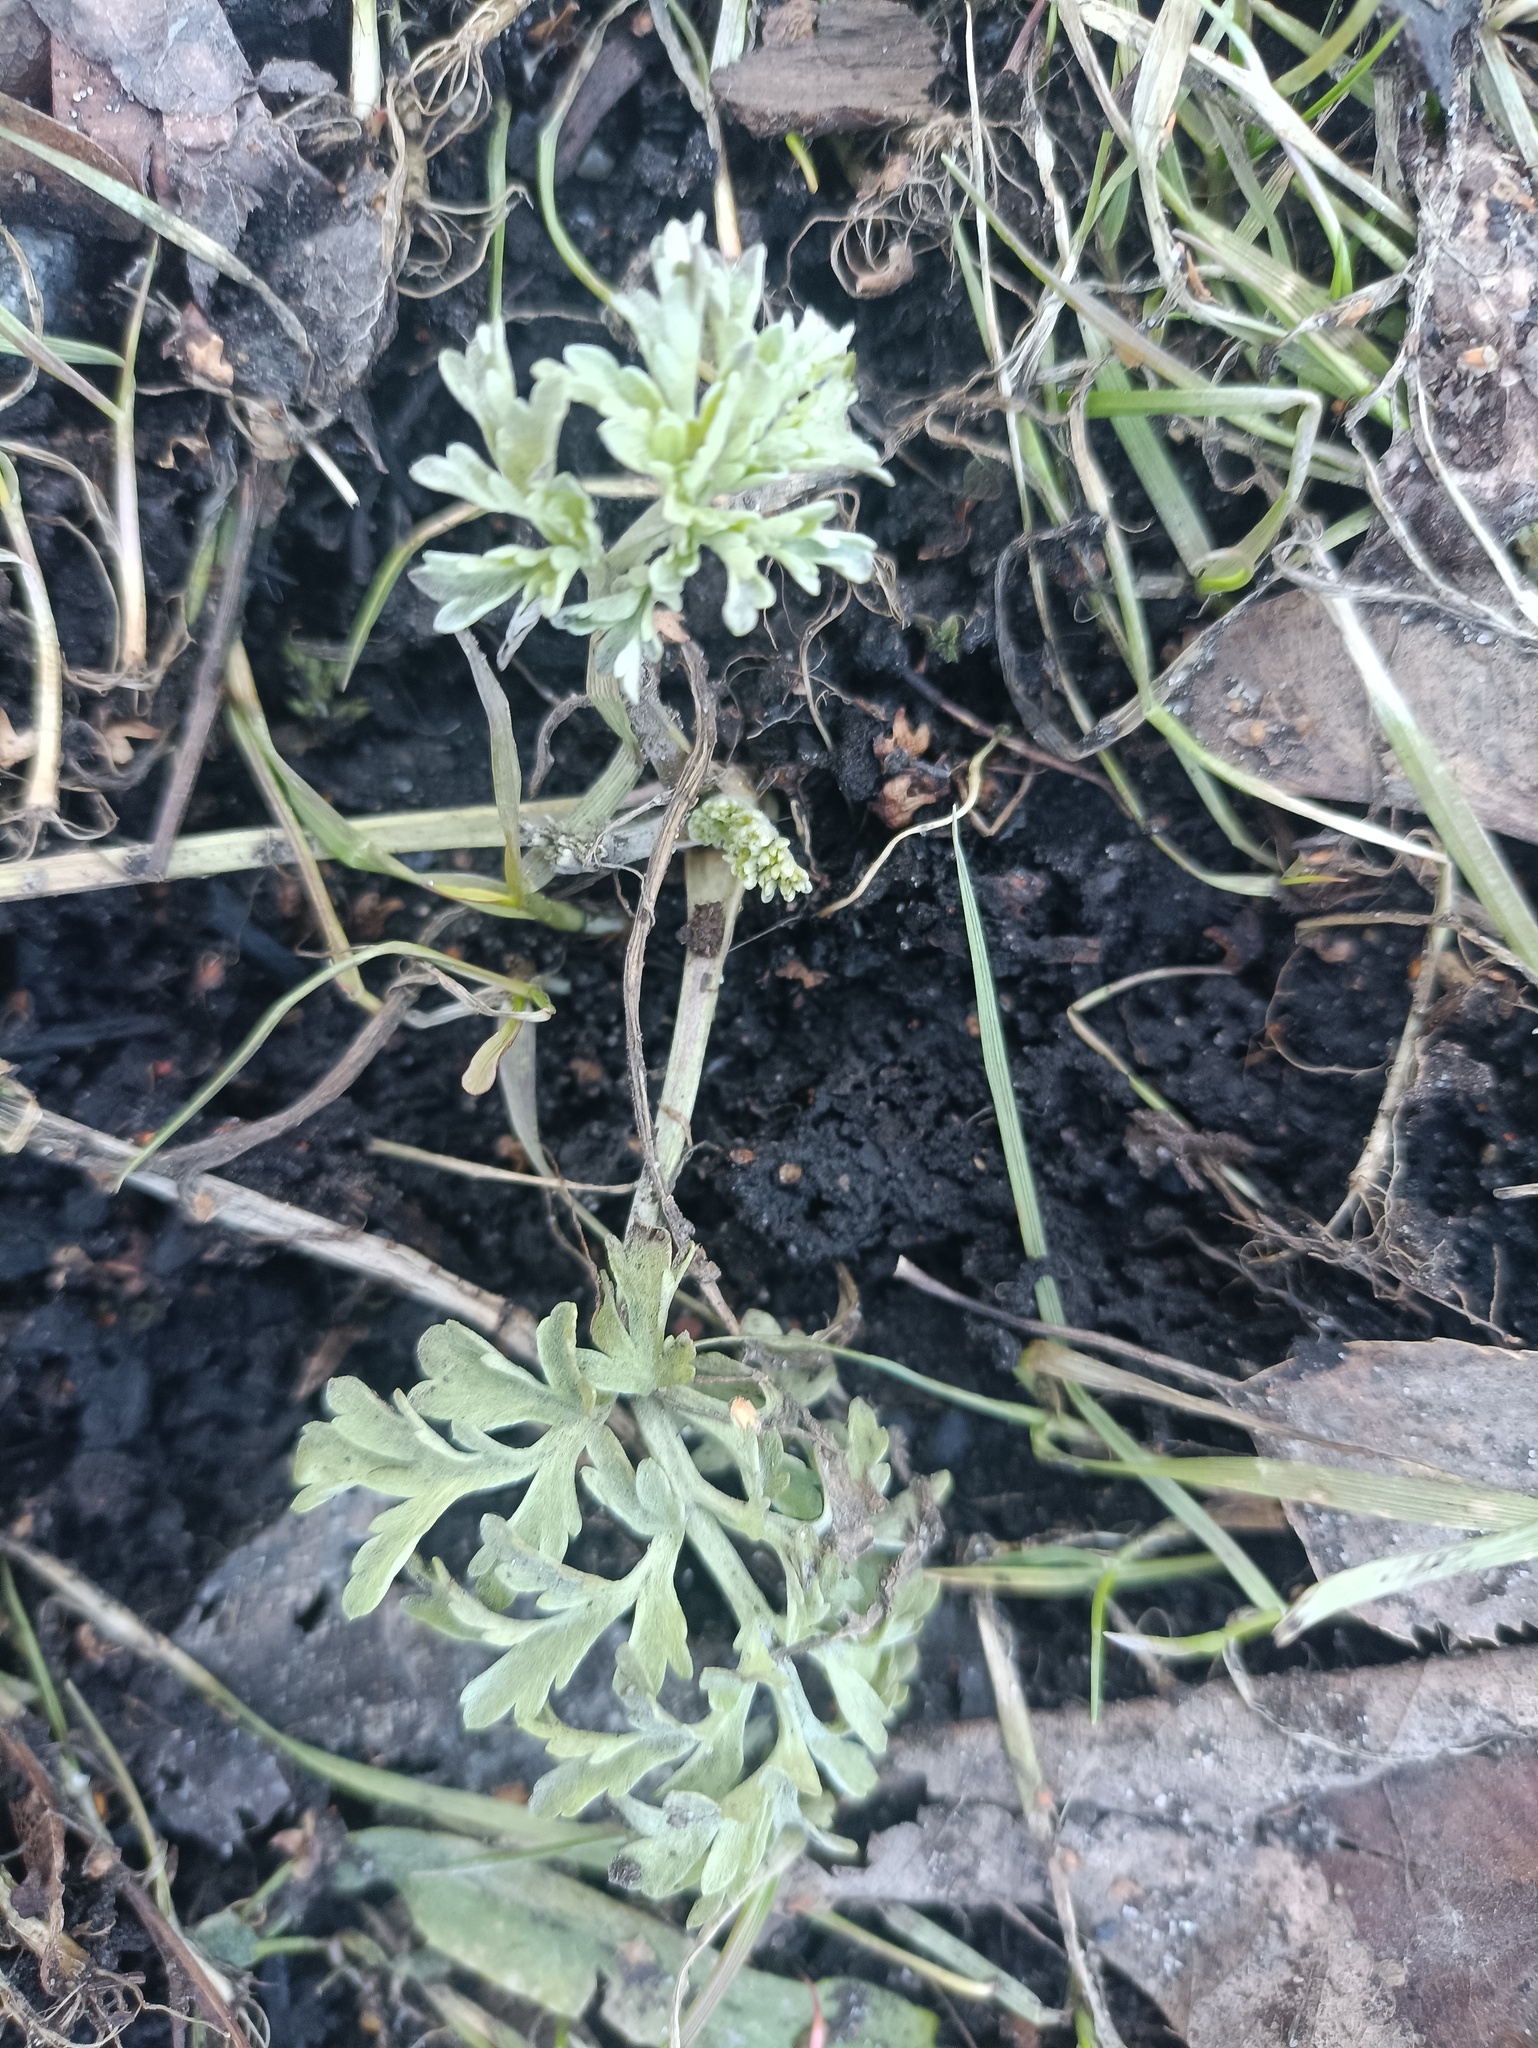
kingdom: Plantae
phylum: Tracheophyta
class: Magnoliopsida
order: Asterales
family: Asteraceae
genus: Artemisia
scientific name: Artemisia absinthium
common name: Wormwood
